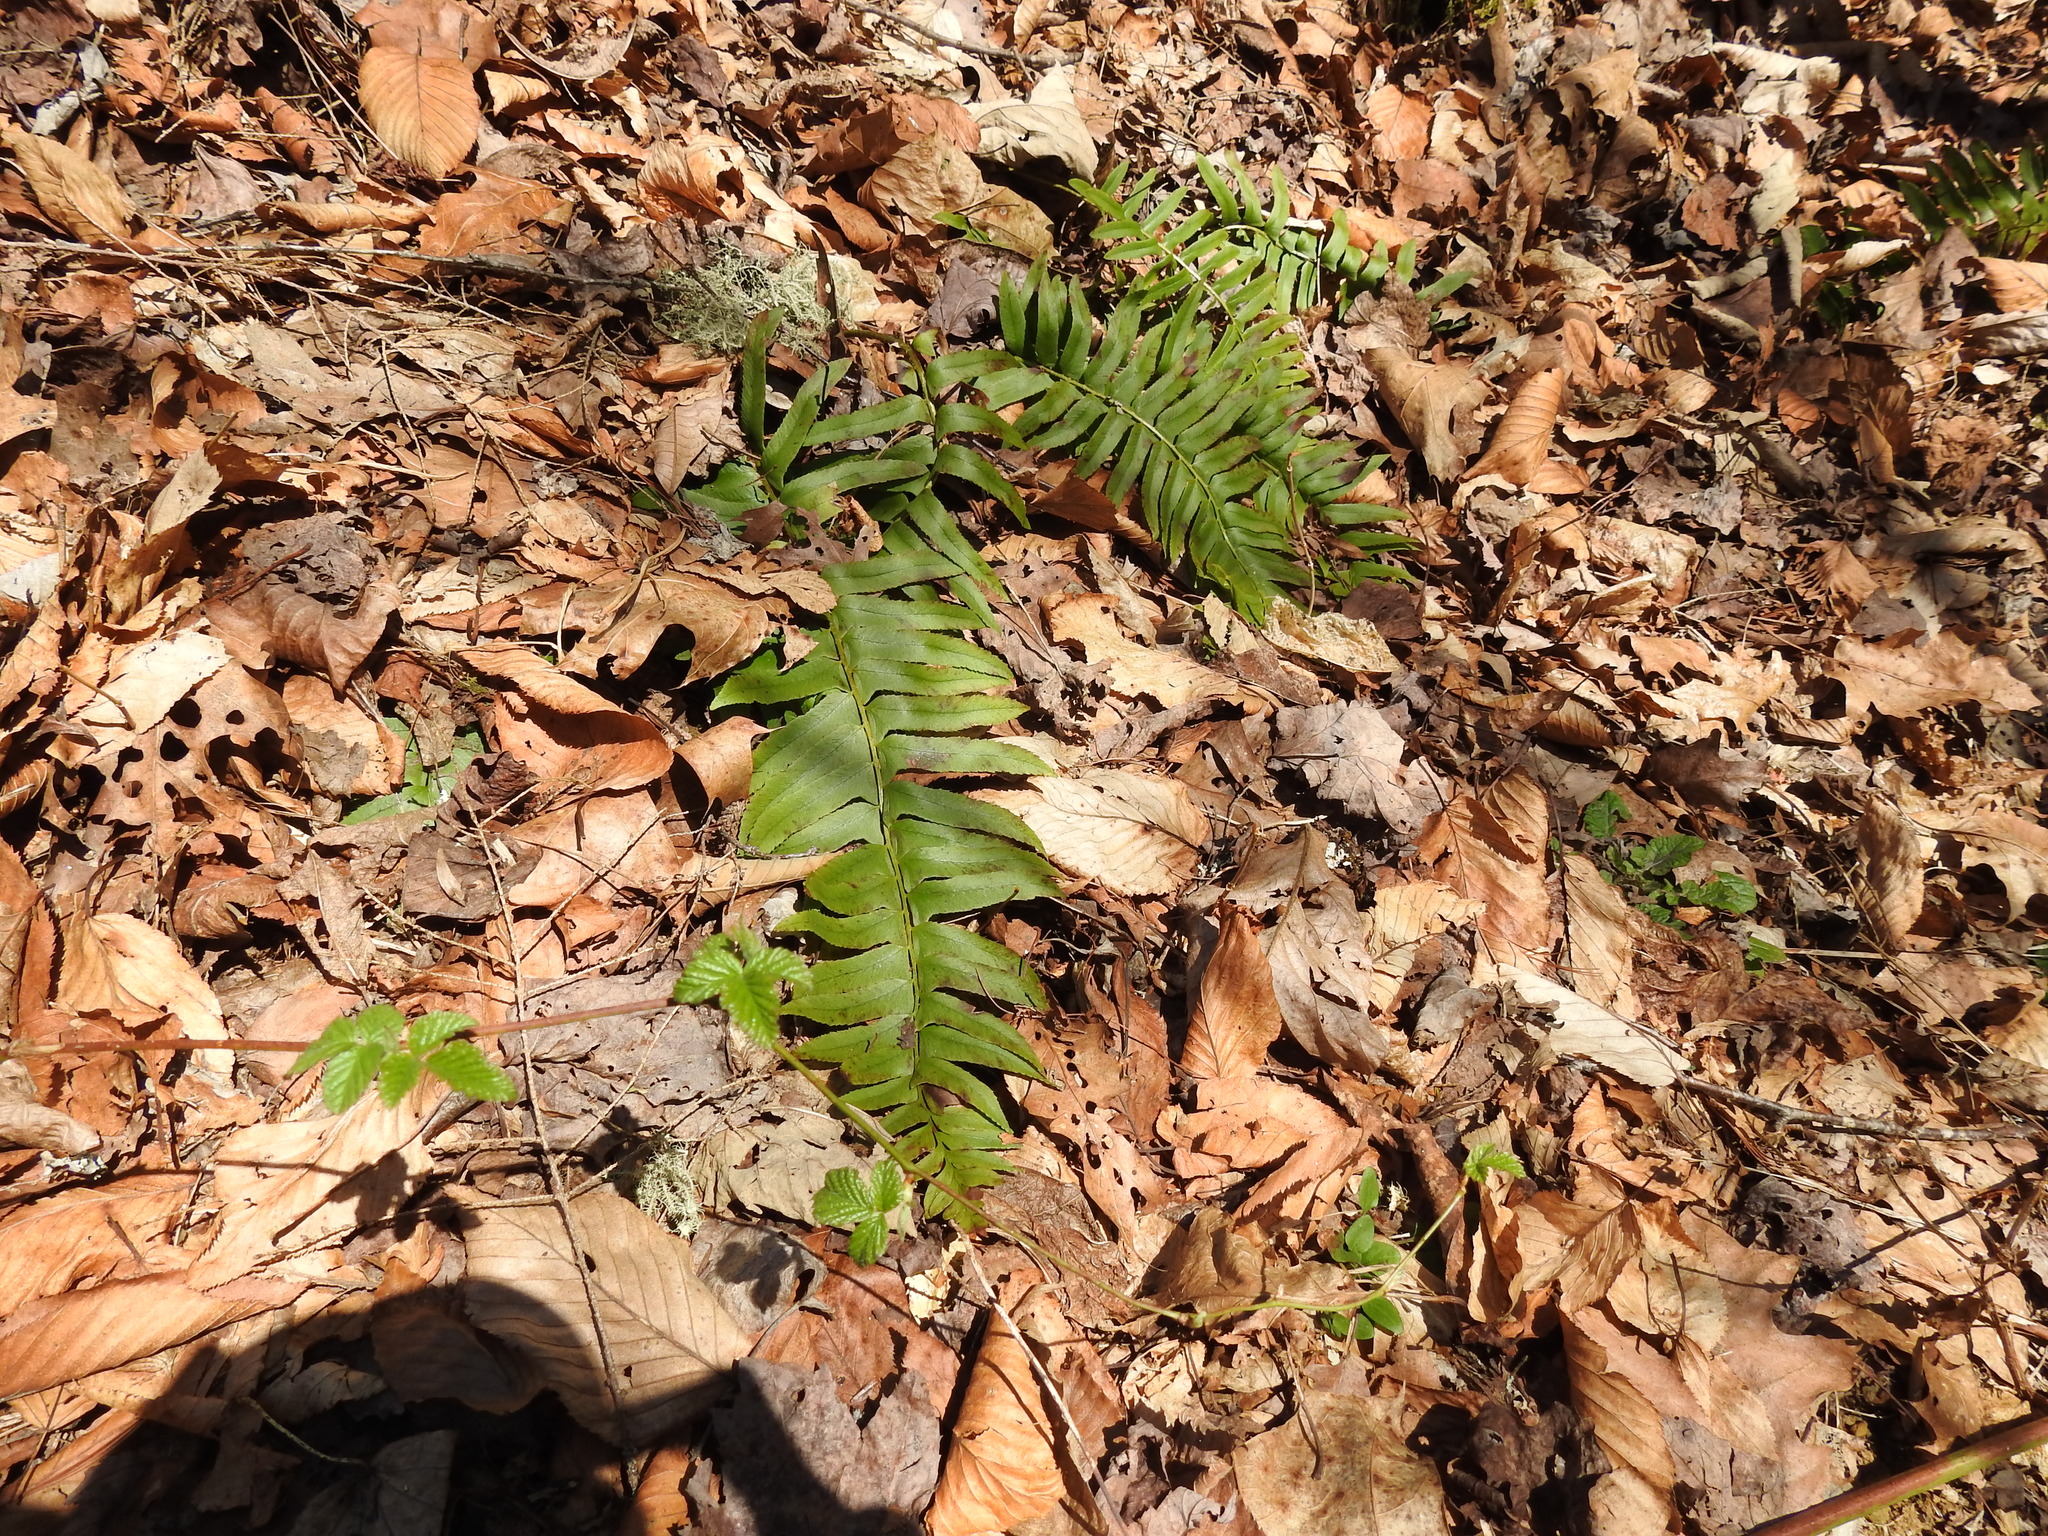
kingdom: Plantae
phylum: Tracheophyta
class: Polypodiopsida
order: Polypodiales
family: Dryopteridaceae
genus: Polystichum
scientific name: Polystichum acrostichoides
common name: Christmas fern
